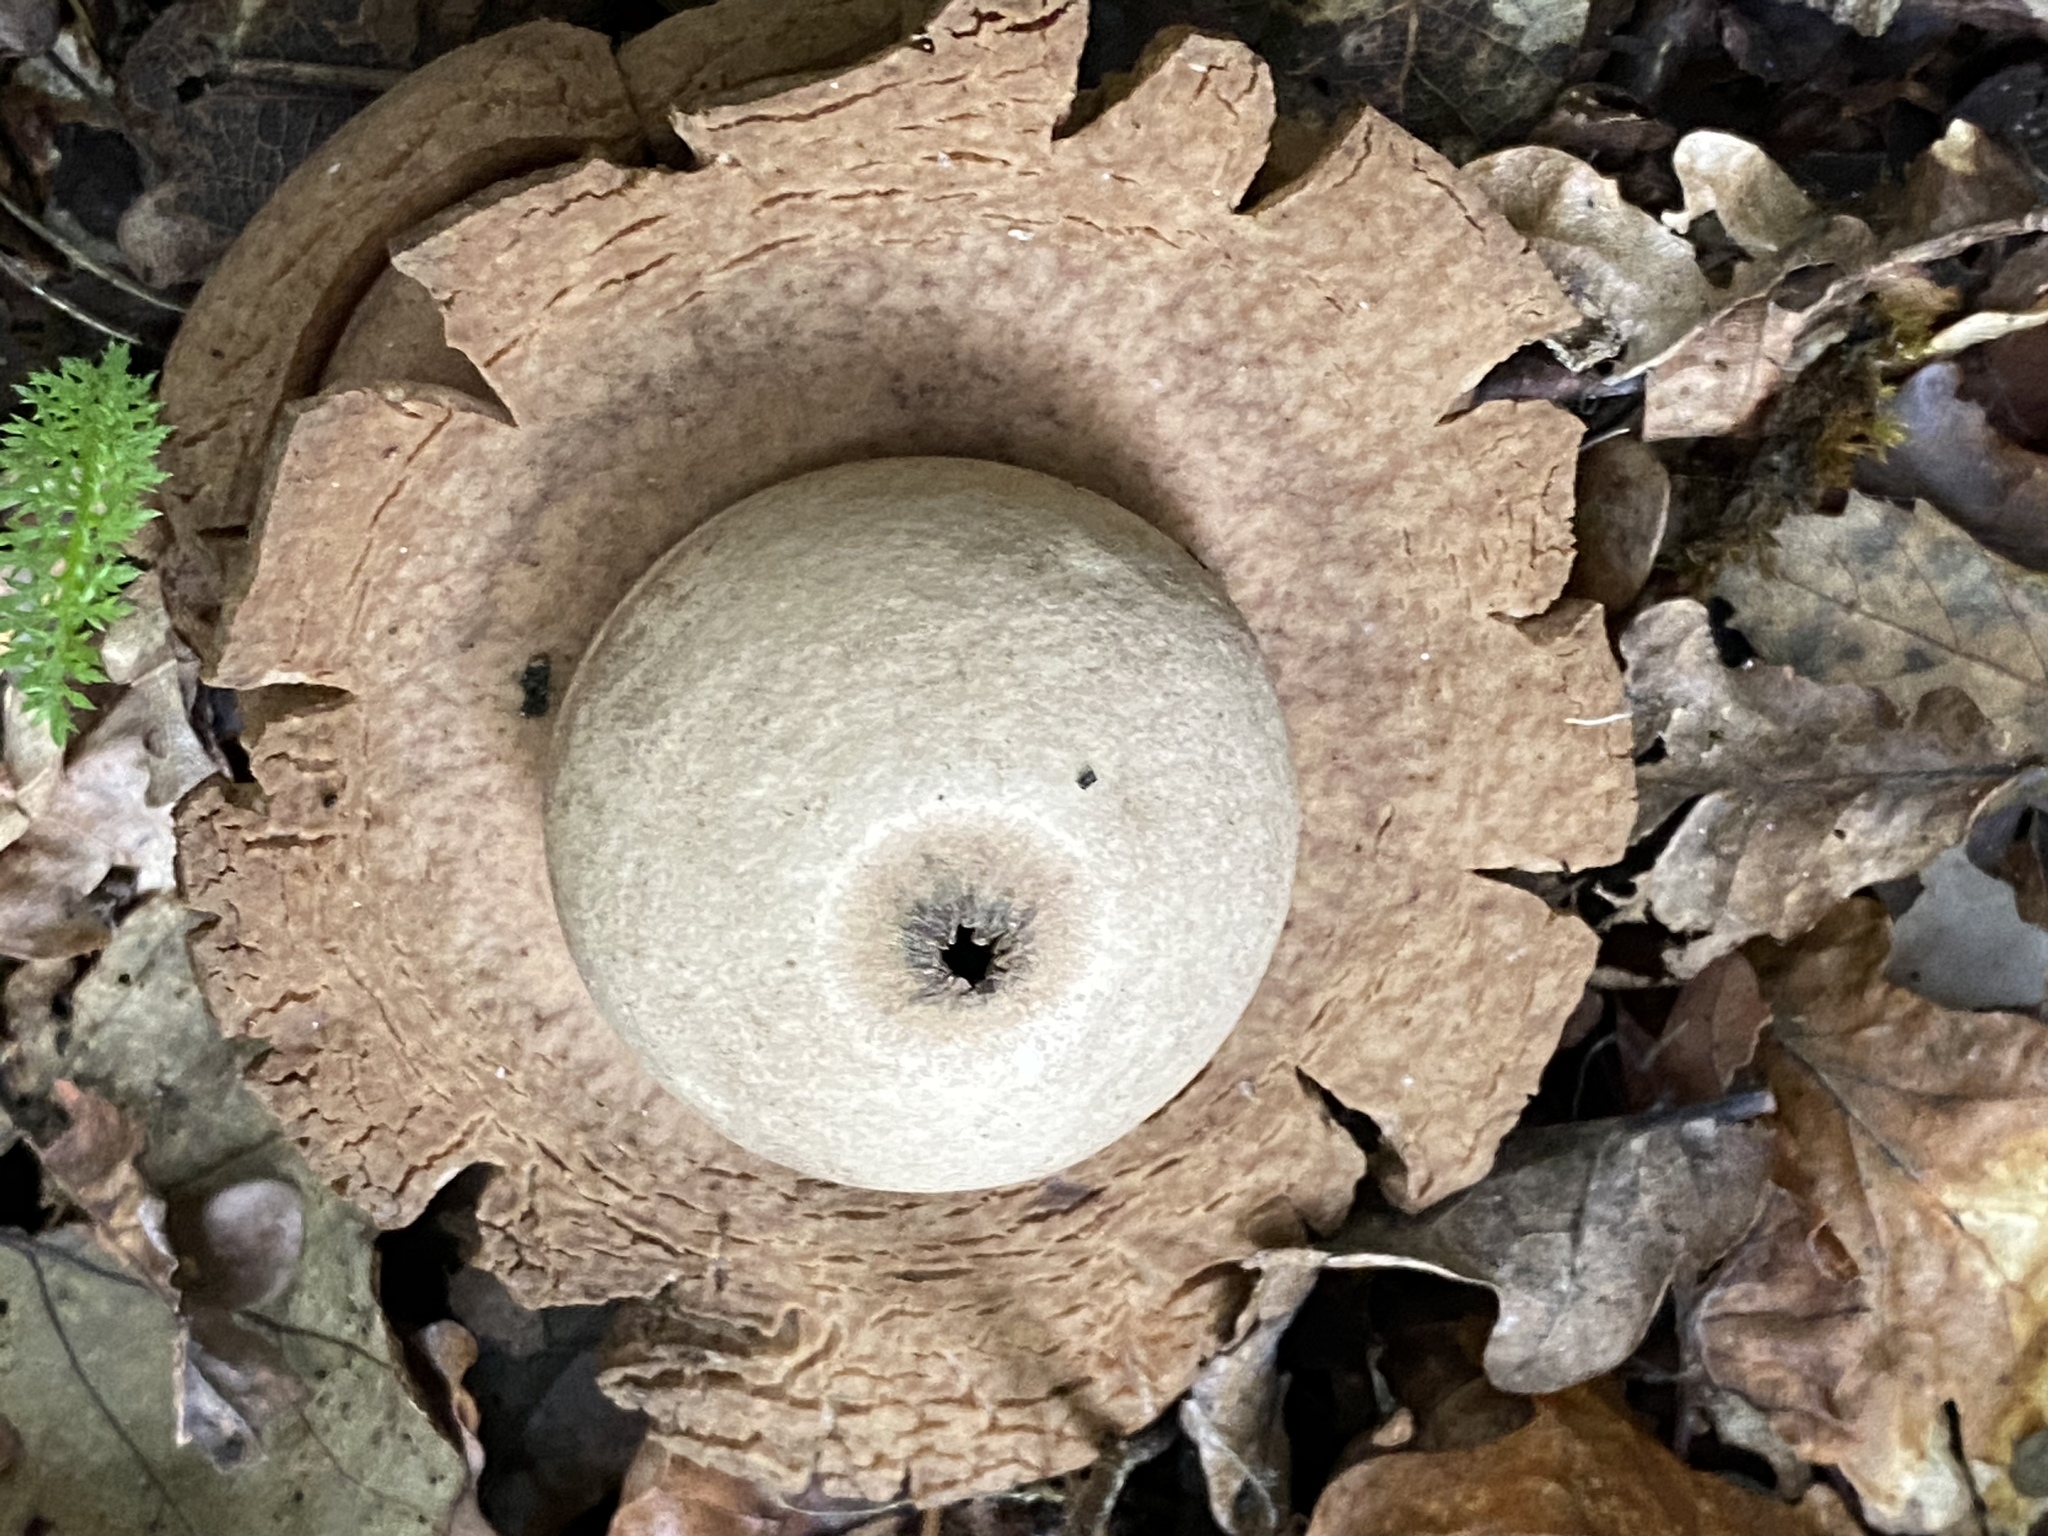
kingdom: Fungi
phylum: Basidiomycota
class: Agaricomycetes
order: Geastrales
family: Geastraceae
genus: Geastrum
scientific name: Geastrum triplex
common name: Collared earthstar
